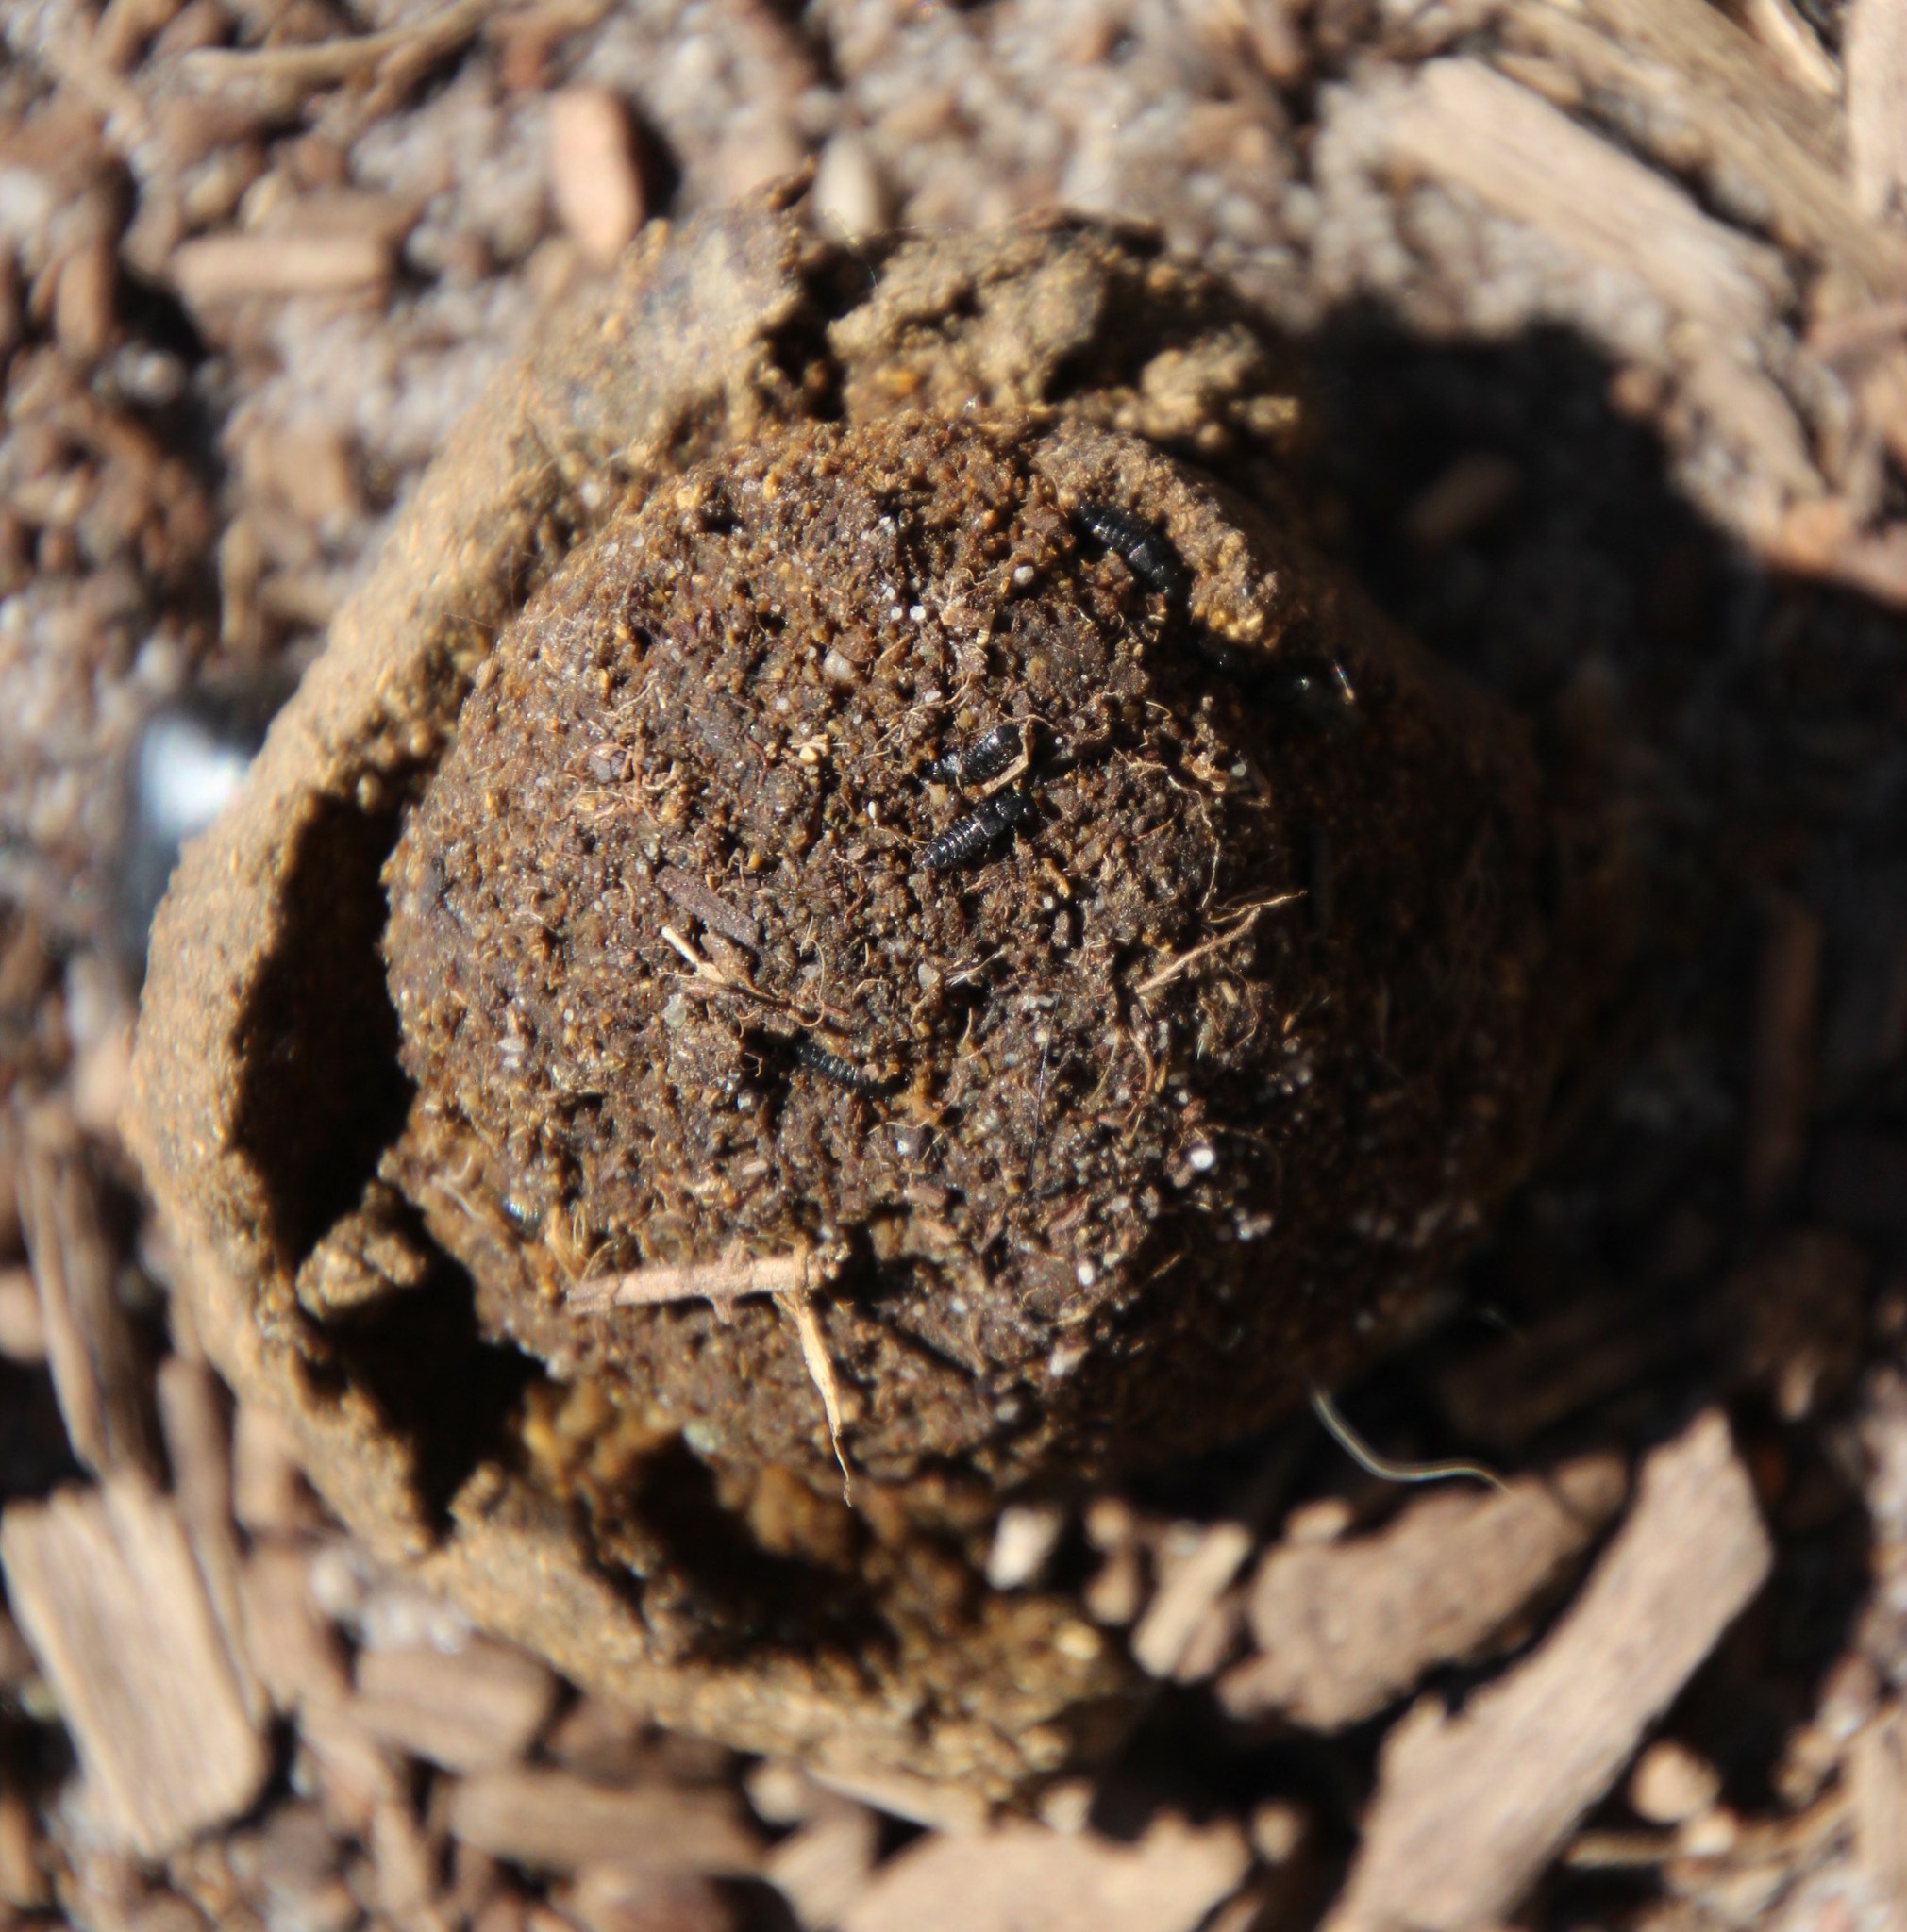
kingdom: Animalia
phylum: Arthropoda
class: Insecta
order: Coleoptera
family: Scarabaeidae
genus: Scarabaeus
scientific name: Scarabaeus convexus
